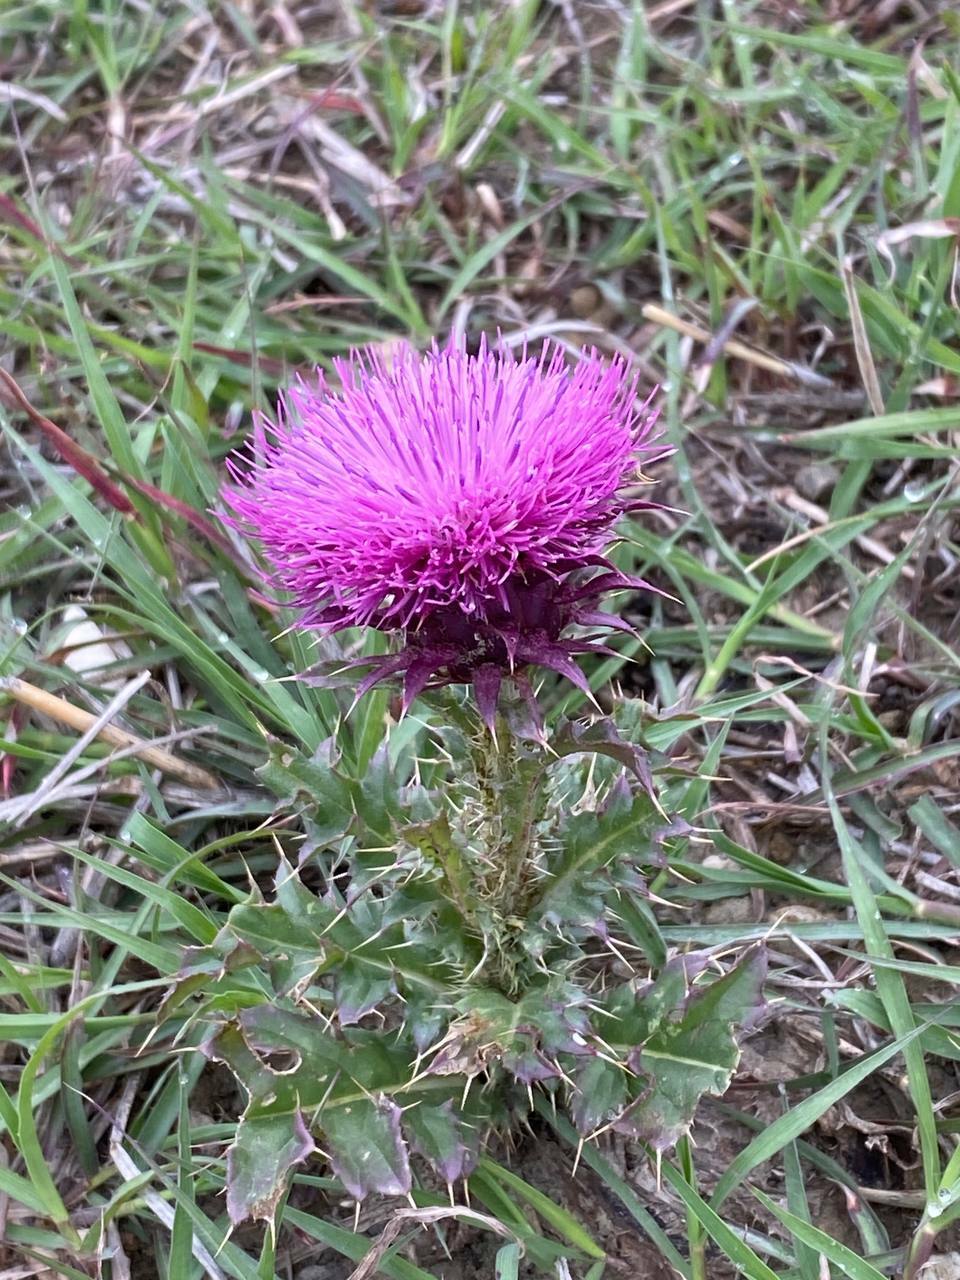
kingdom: Plantae
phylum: Tracheophyta
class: Magnoliopsida
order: Asterales
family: Asteraceae
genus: Carduus
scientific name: Carduus nutans
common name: Musk thistle
